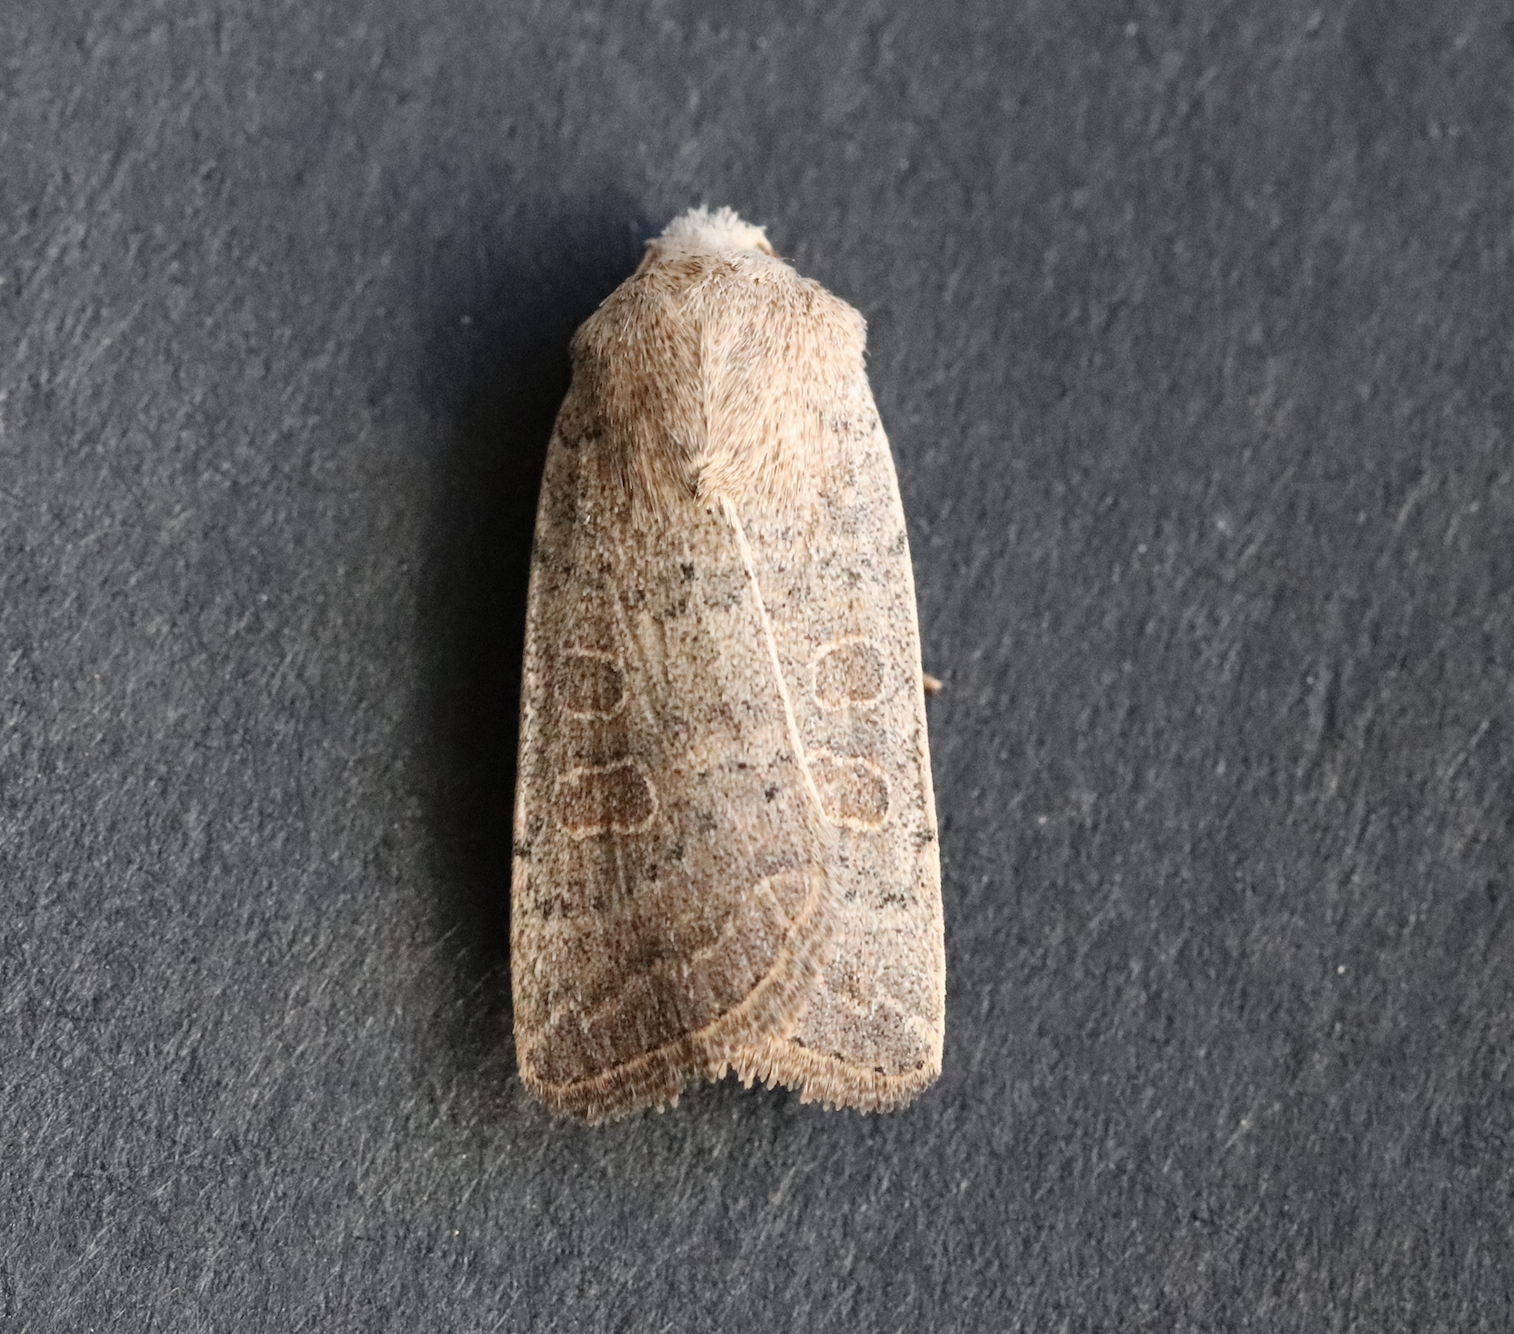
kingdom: Animalia
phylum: Arthropoda
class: Insecta
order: Lepidoptera
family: Noctuidae
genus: Hoplodrina
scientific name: Hoplodrina ambigua
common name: Vine's rustic
